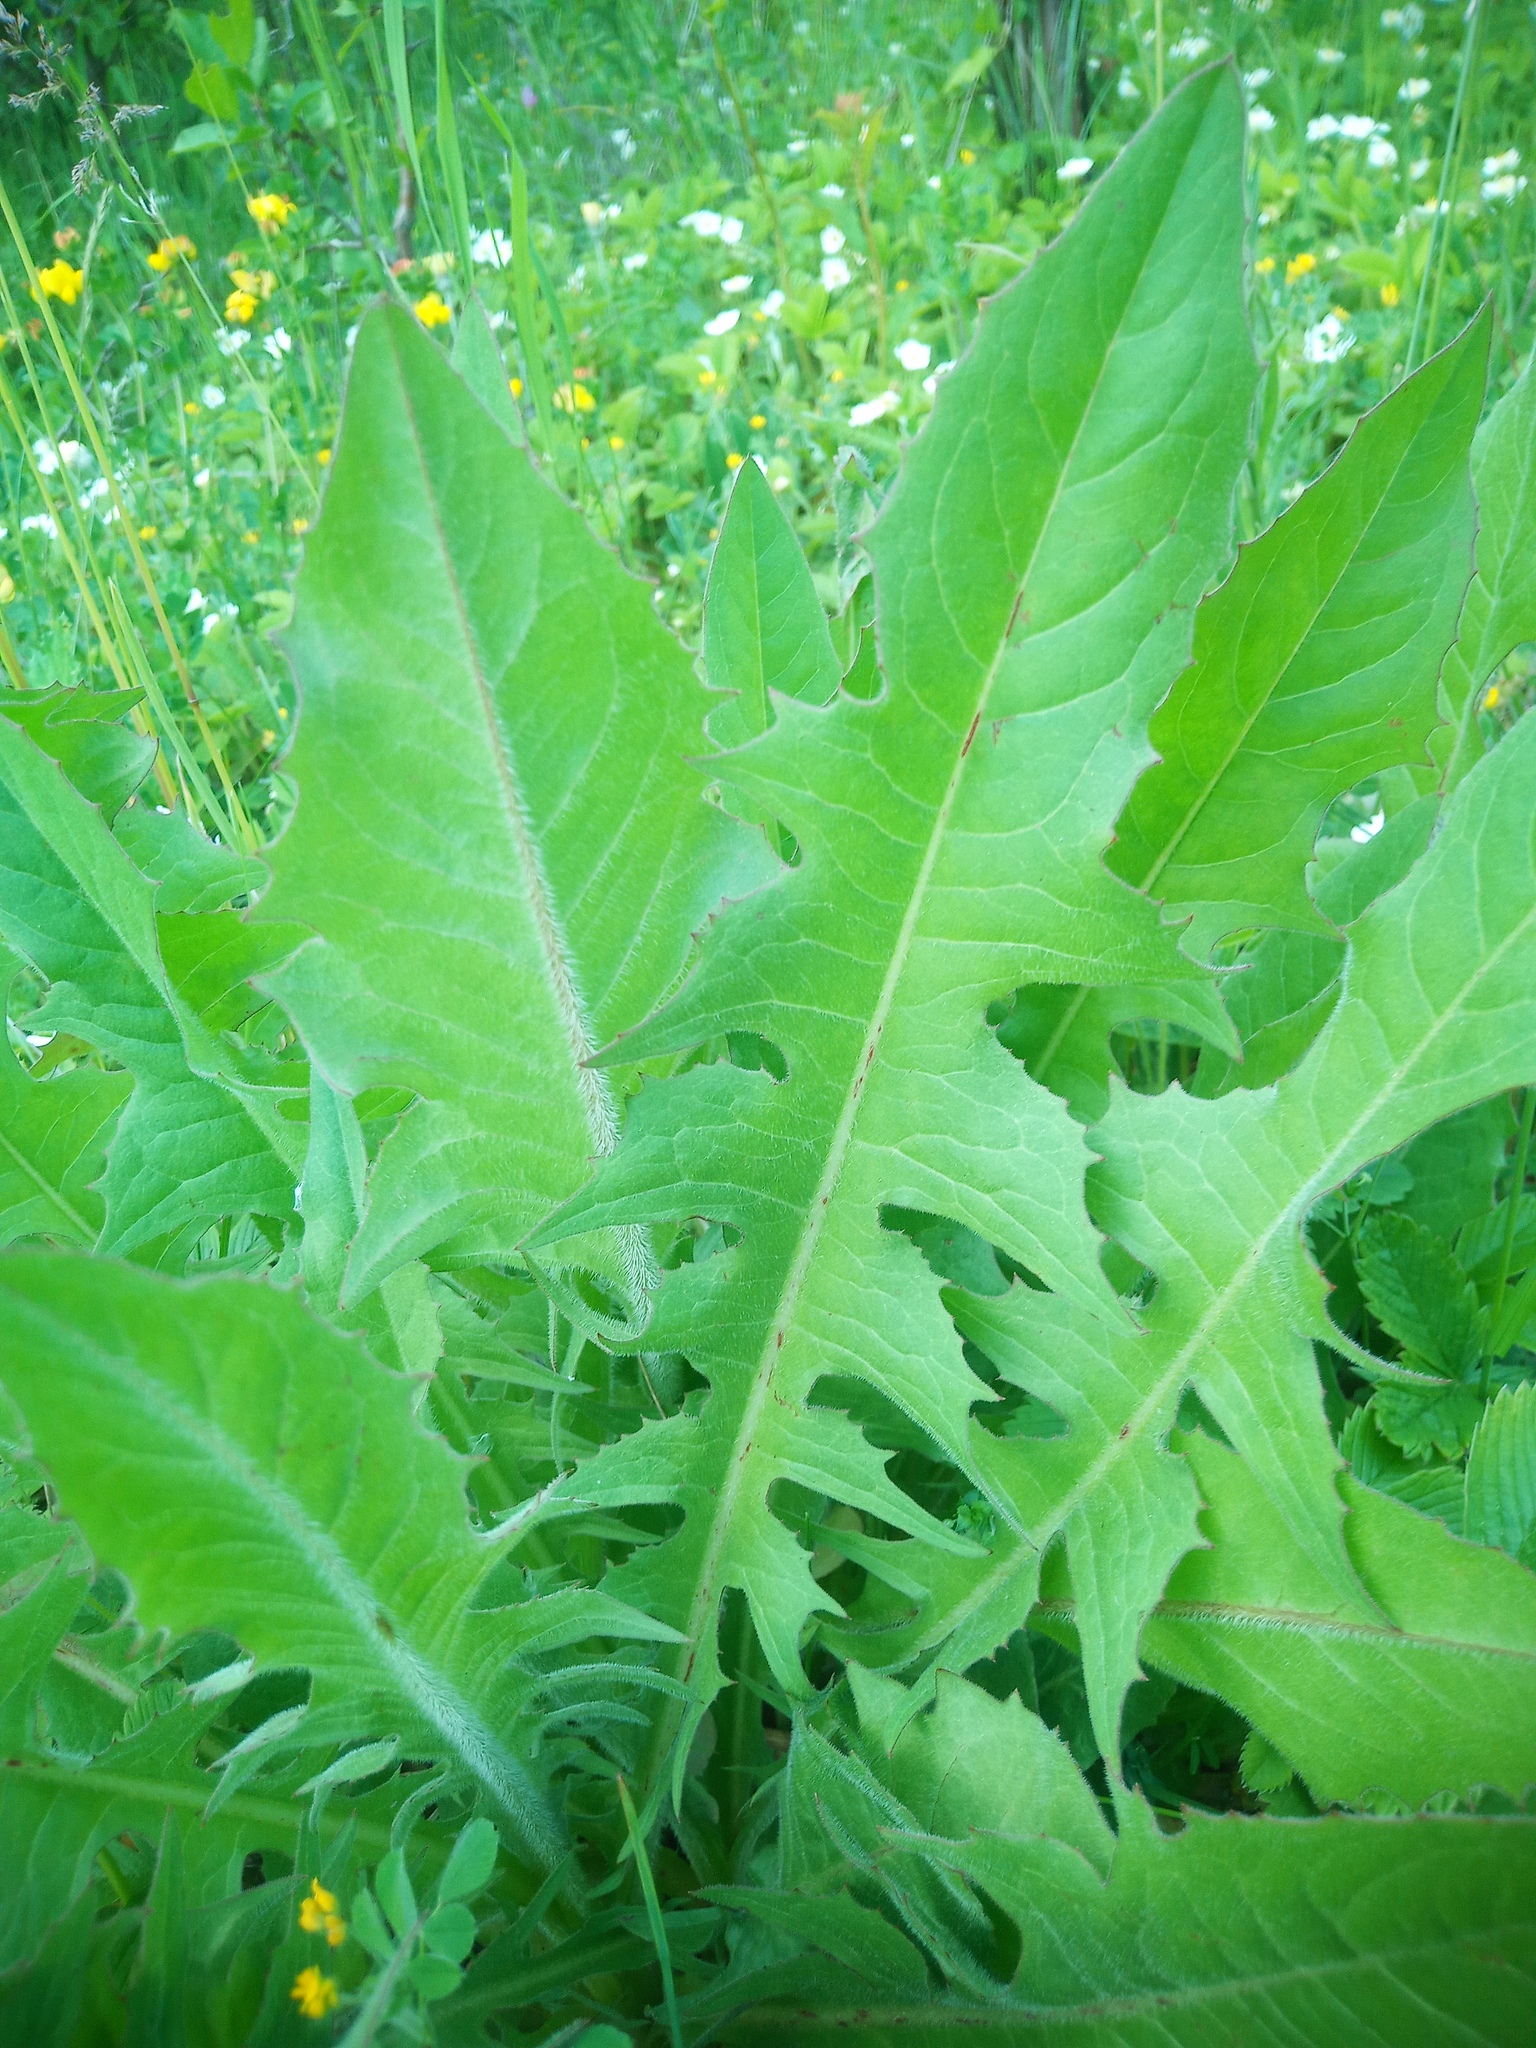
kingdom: Plantae
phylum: Tracheophyta
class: Magnoliopsida
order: Asterales
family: Asteraceae
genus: Taraxacum
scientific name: Taraxacum officinale
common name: Common dandelion
